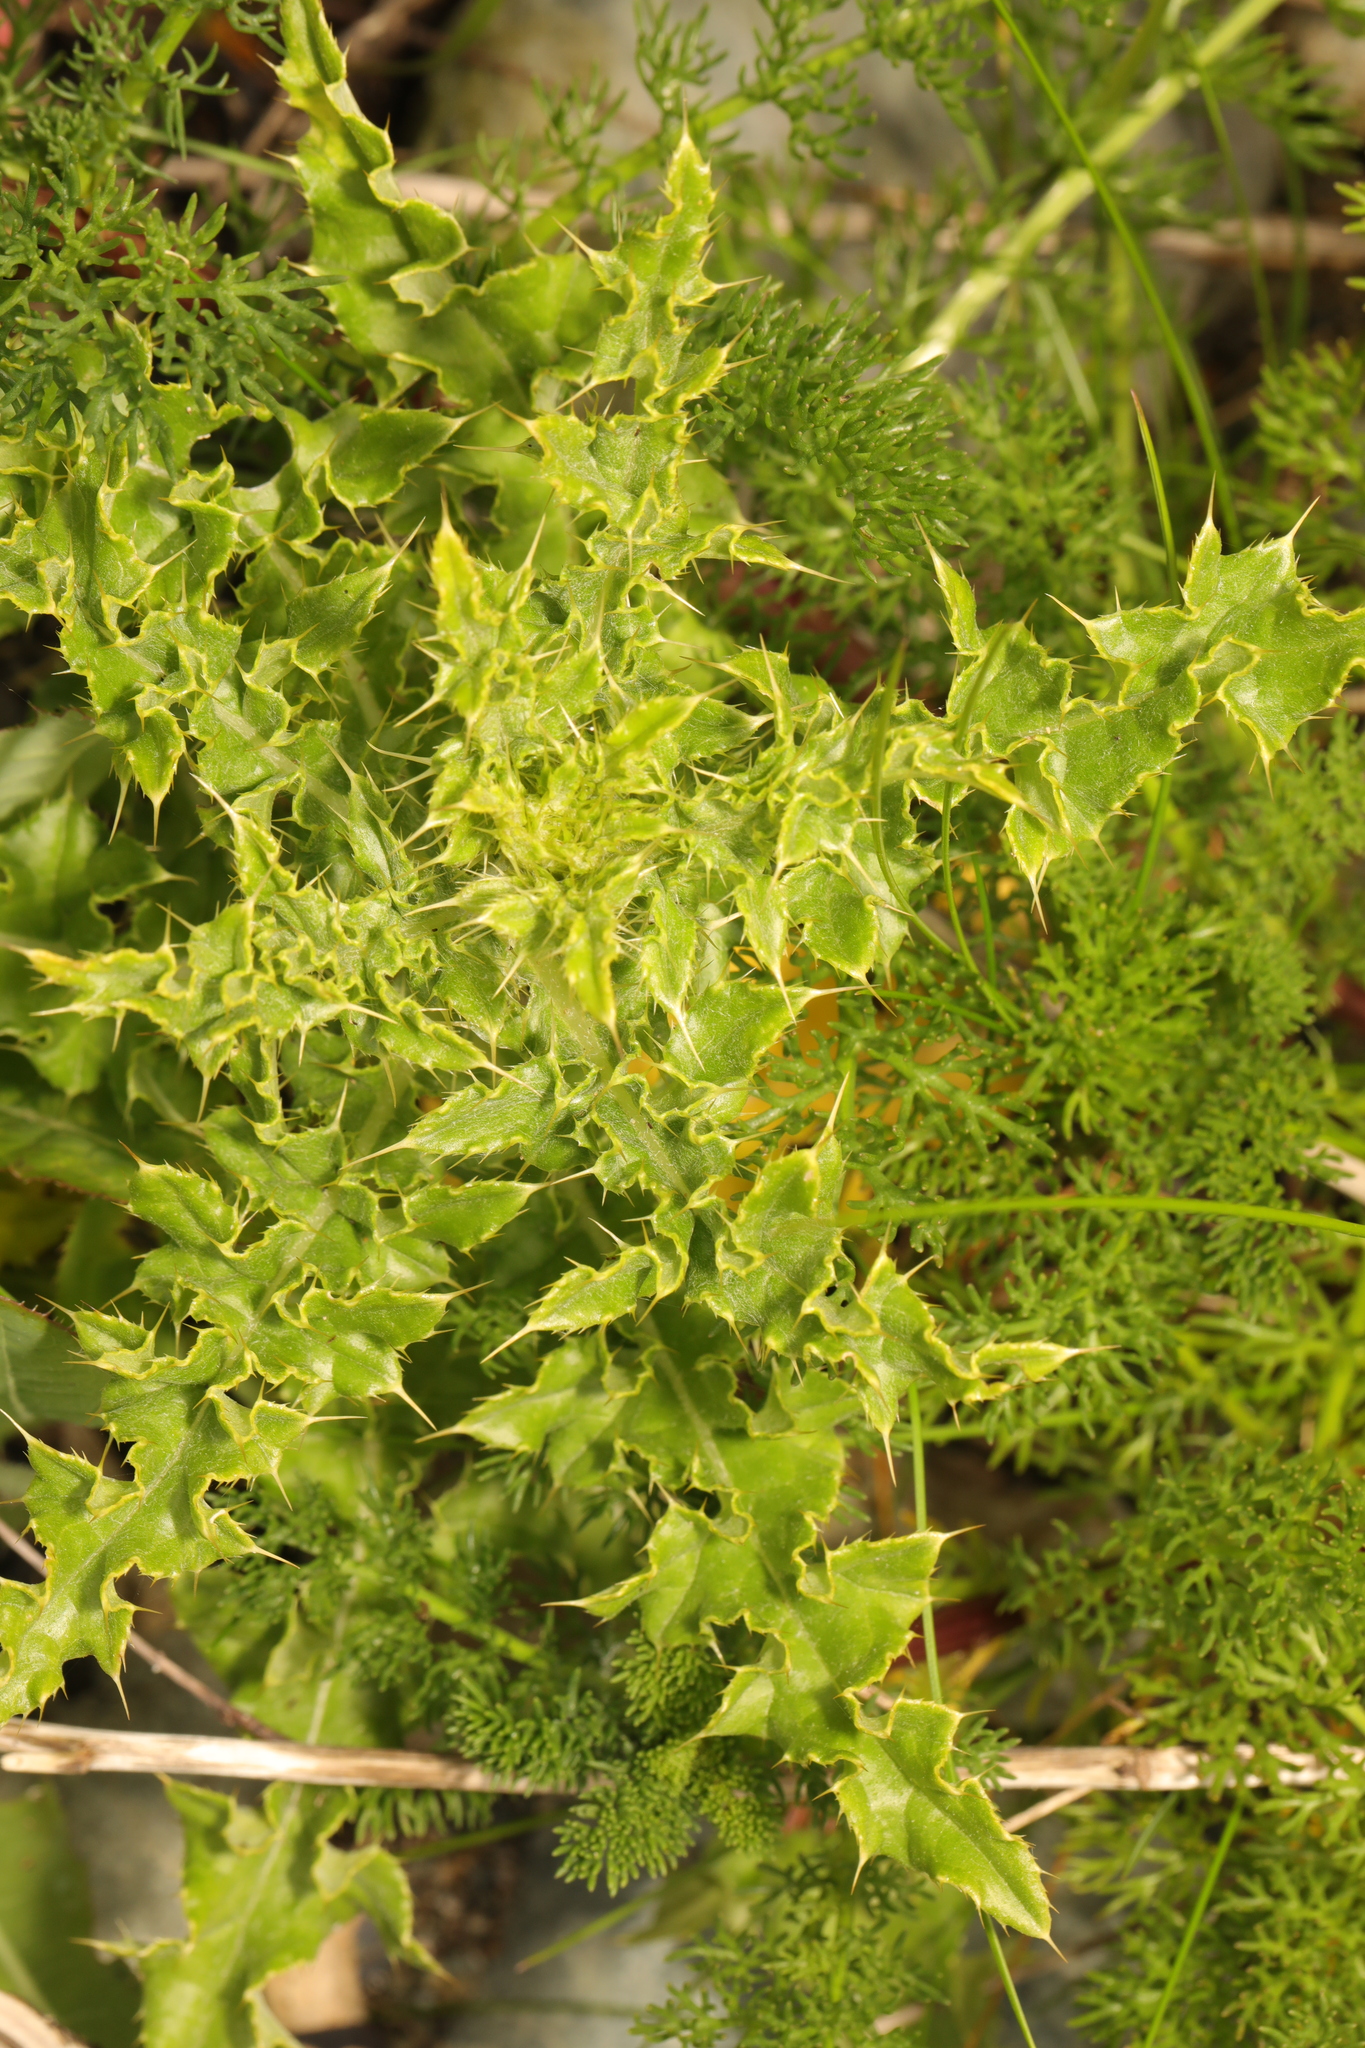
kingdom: Plantae
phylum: Tracheophyta
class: Magnoliopsida
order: Asterales
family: Asteraceae
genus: Cirsium
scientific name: Cirsium arvense
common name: Creeping thistle
